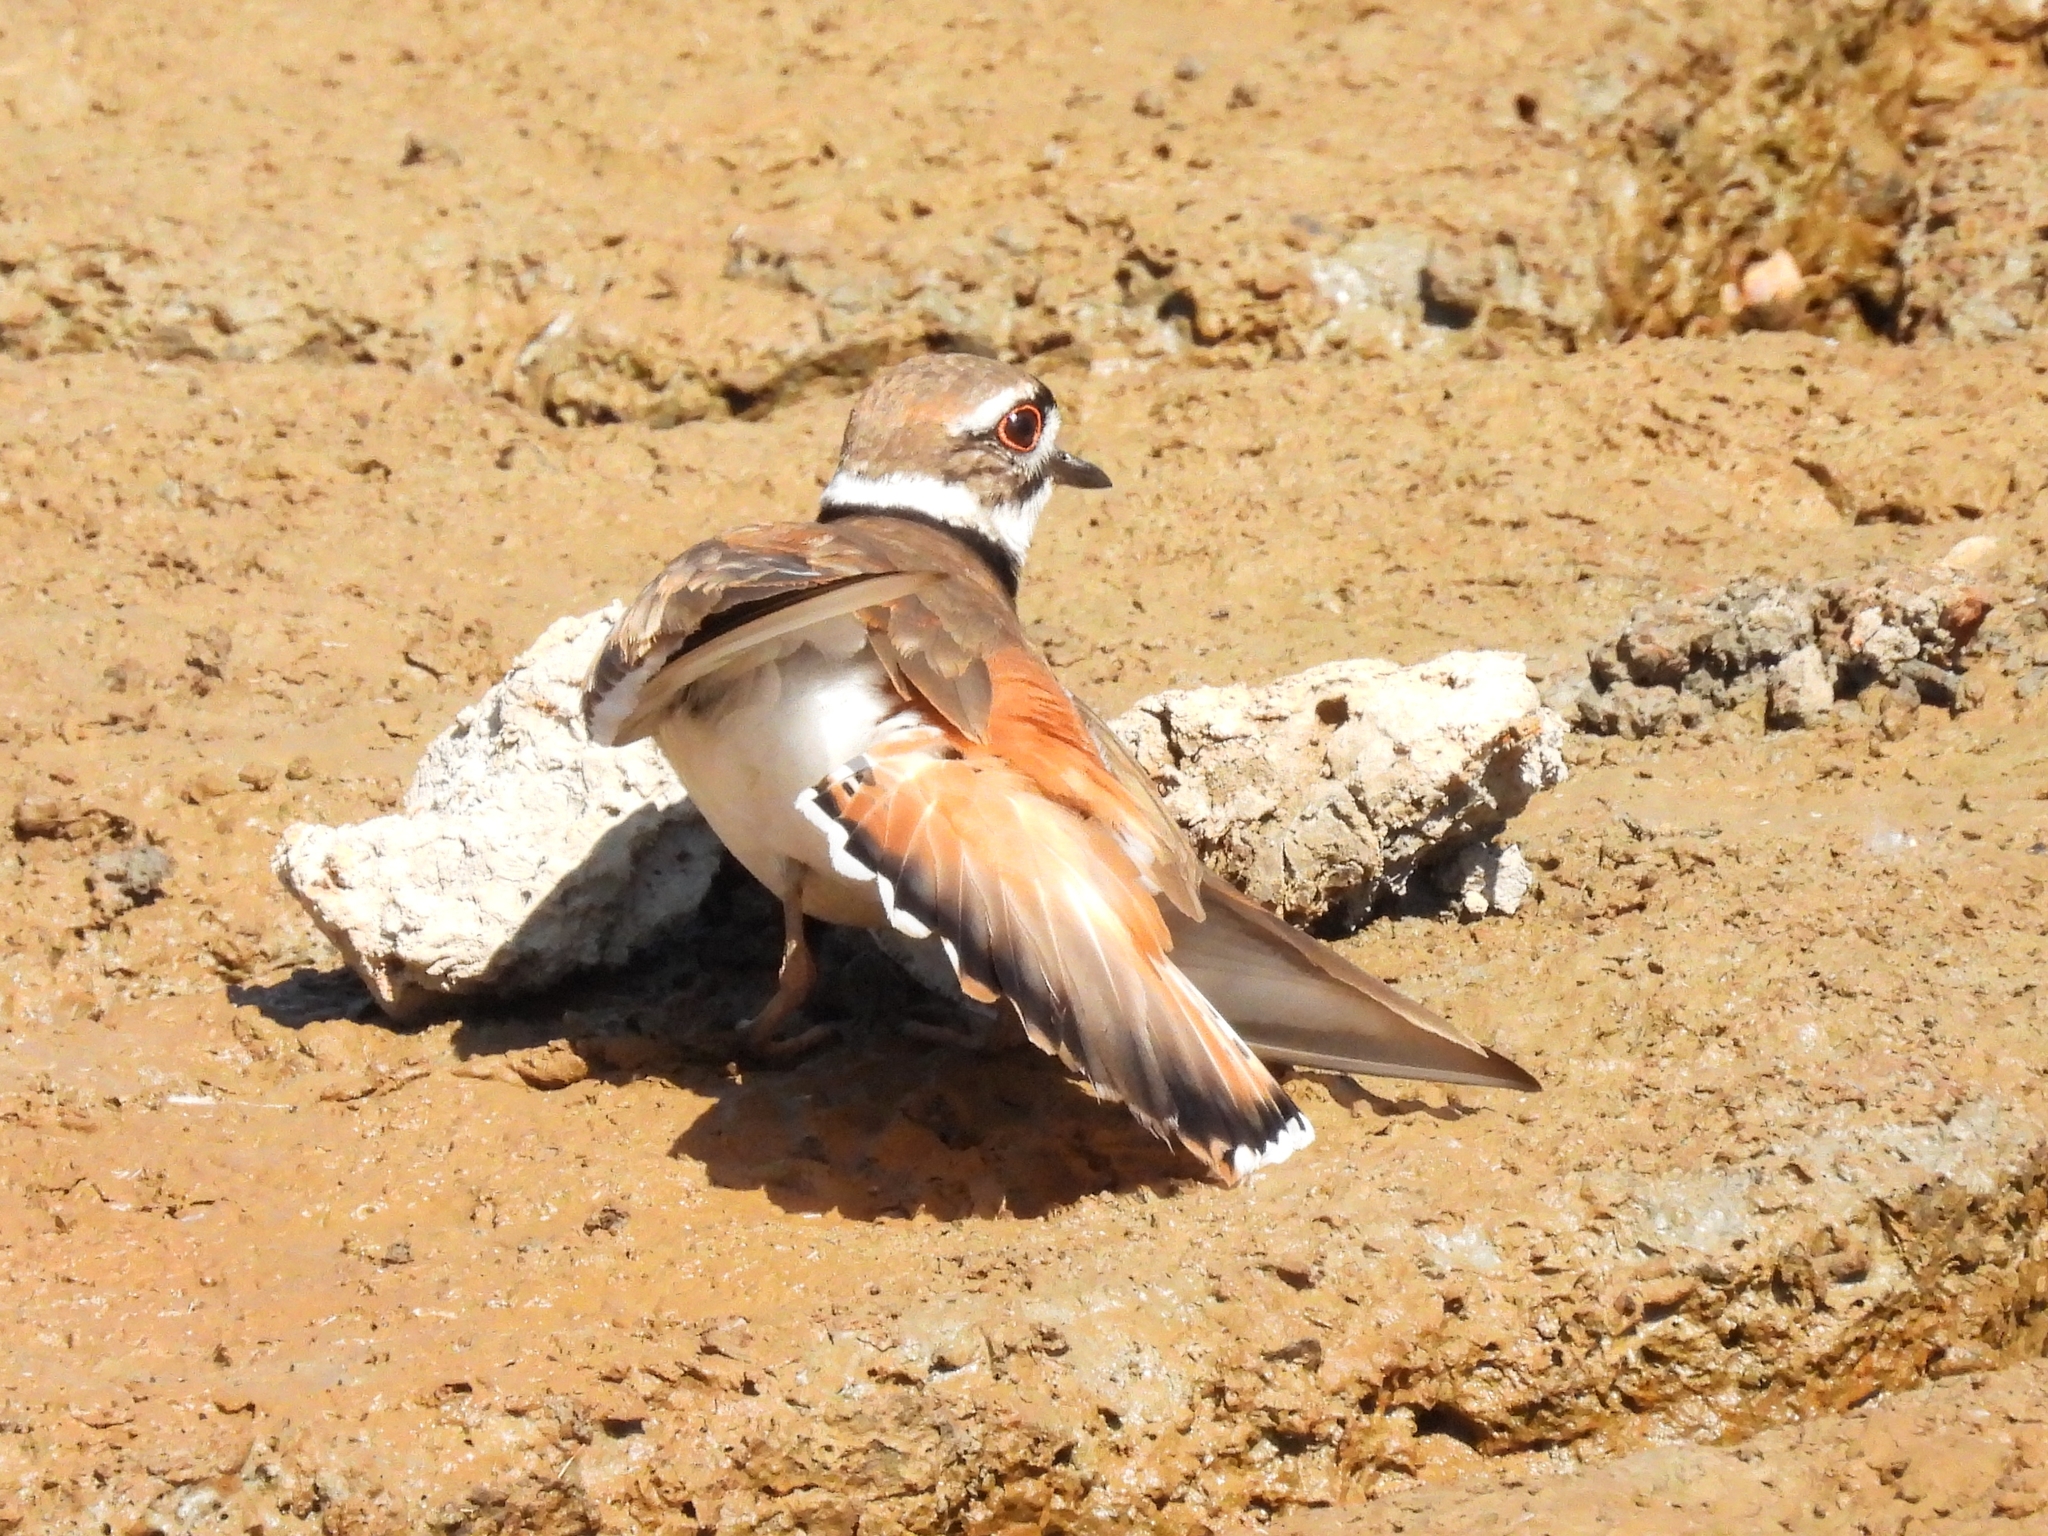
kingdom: Animalia
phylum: Chordata
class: Aves
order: Charadriiformes
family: Charadriidae
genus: Charadrius
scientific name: Charadrius vociferus
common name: Killdeer
